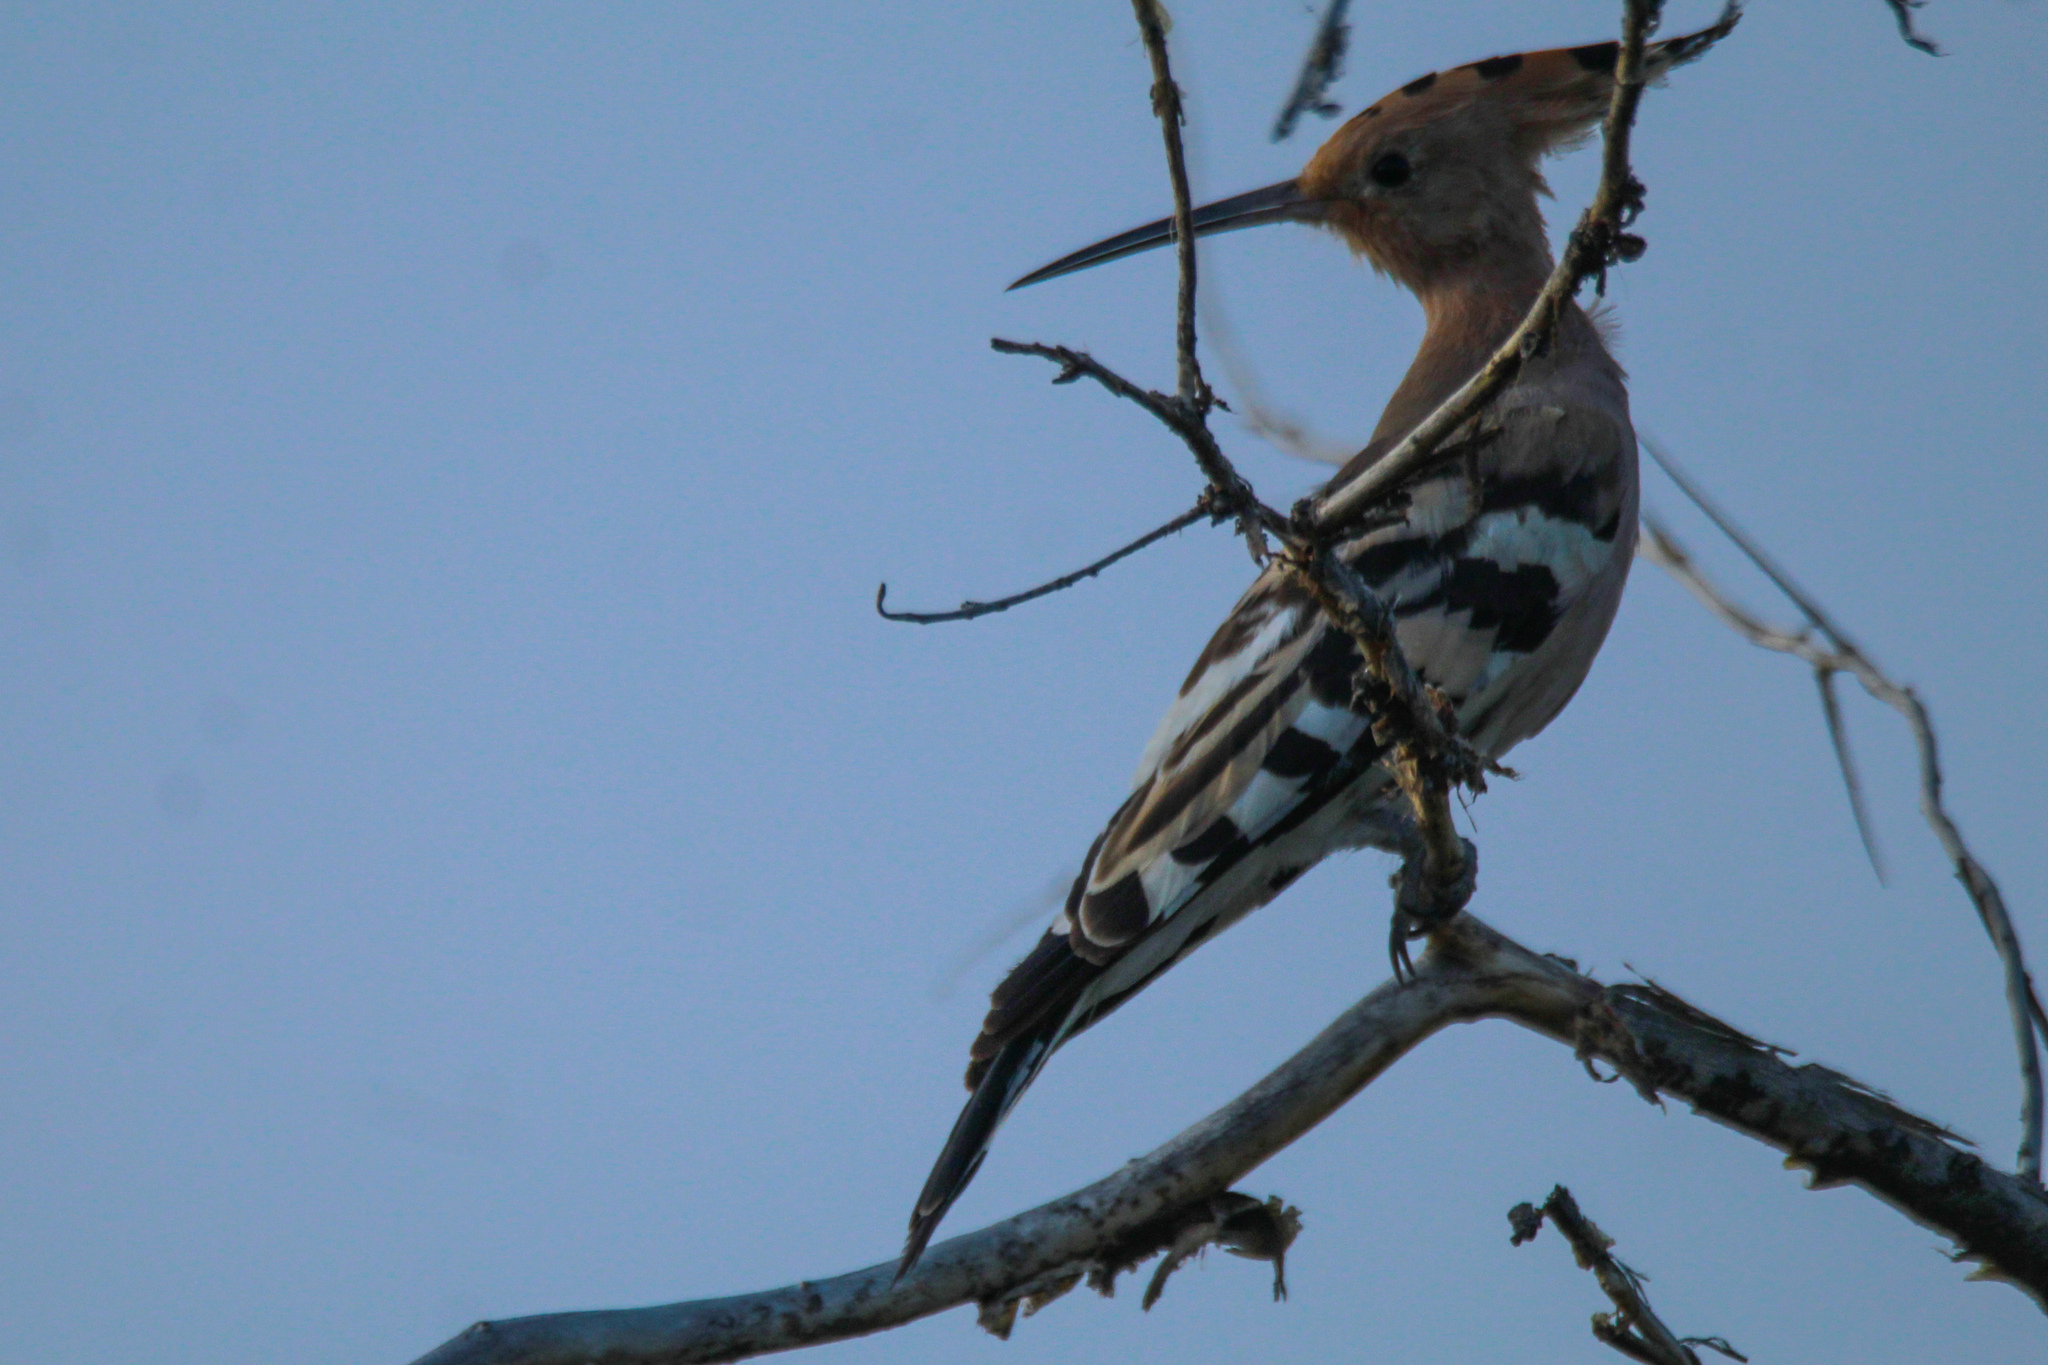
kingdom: Animalia
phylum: Chordata
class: Aves
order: Bucerotiformes
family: Upupidae
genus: Upupa
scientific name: Upupa epops
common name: Eurasian hoopoe
